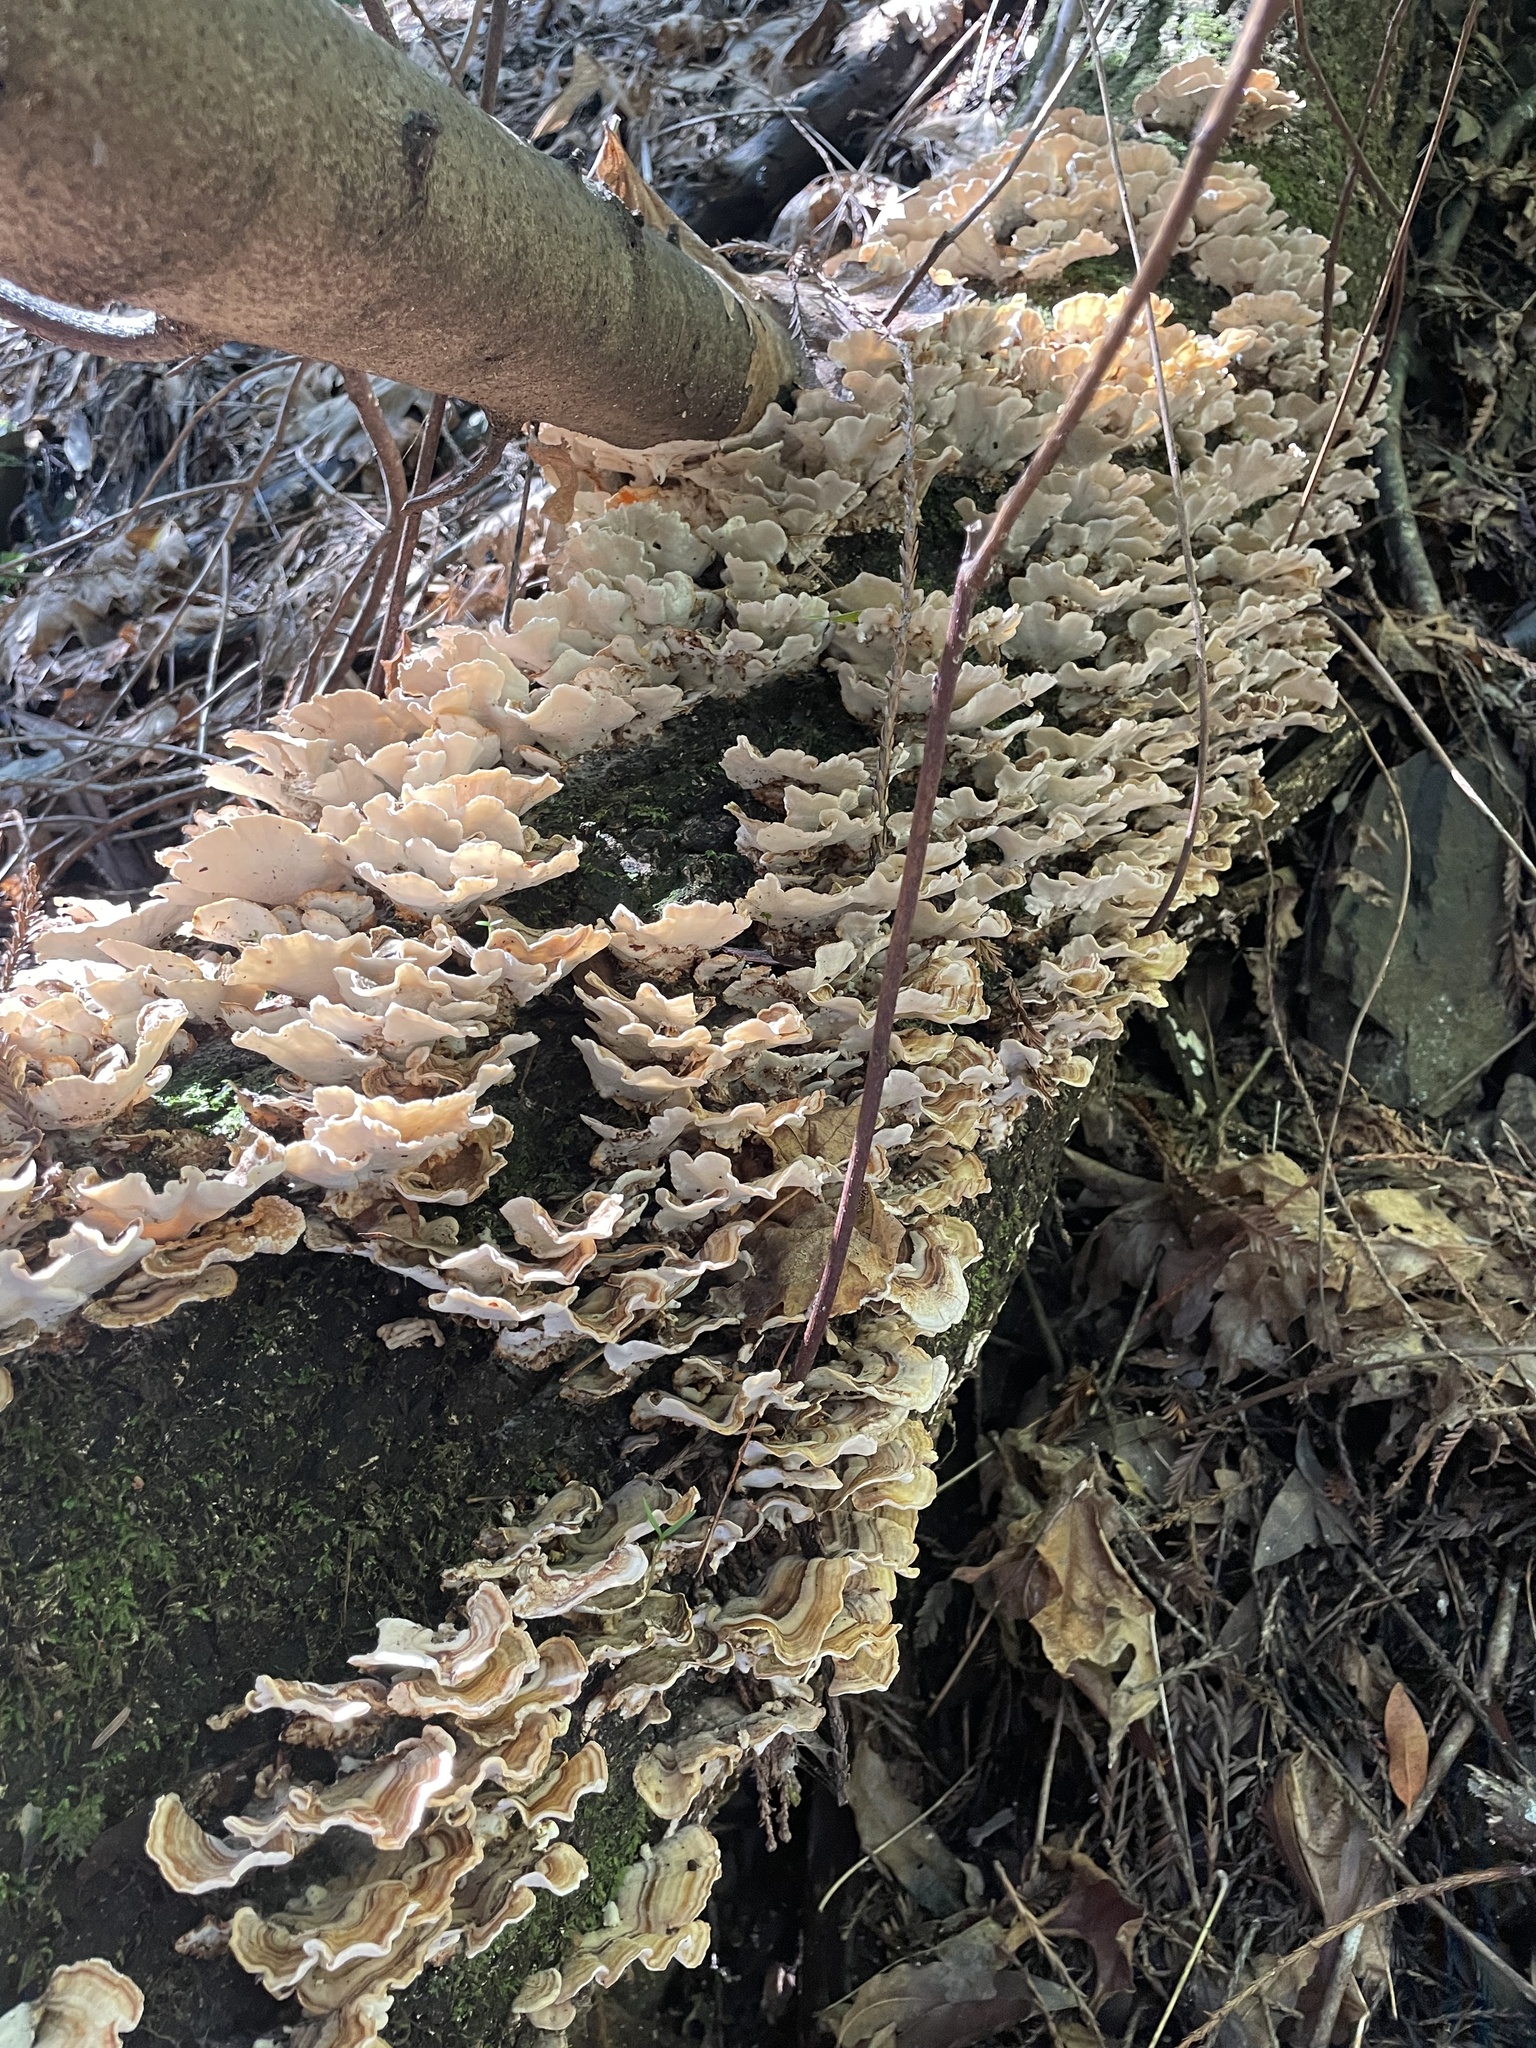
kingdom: Fungi
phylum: Basidiomycota
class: Agaricomycetes
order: Polyporales
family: Polyporaceae
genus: Trametes
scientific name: Trametes versicolor
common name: Turkeytail
